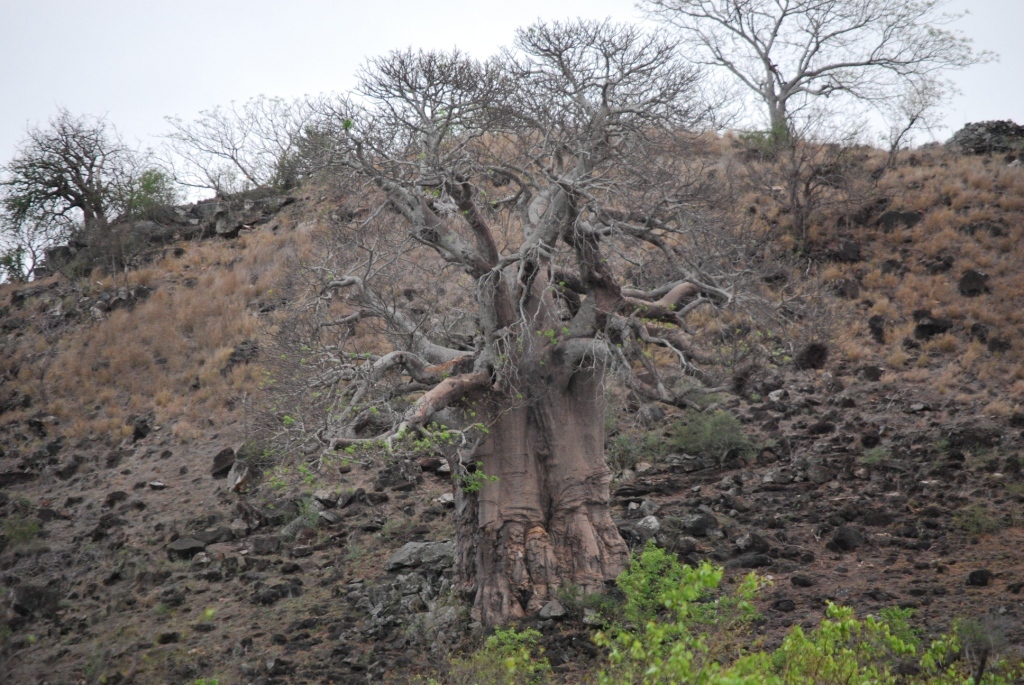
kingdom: Plantae
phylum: Tracheophyta
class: Magnoliopsida
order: Malvales
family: Malvaceae
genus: Adansonia
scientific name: Adansonia digitata
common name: Dead-rat-tree
